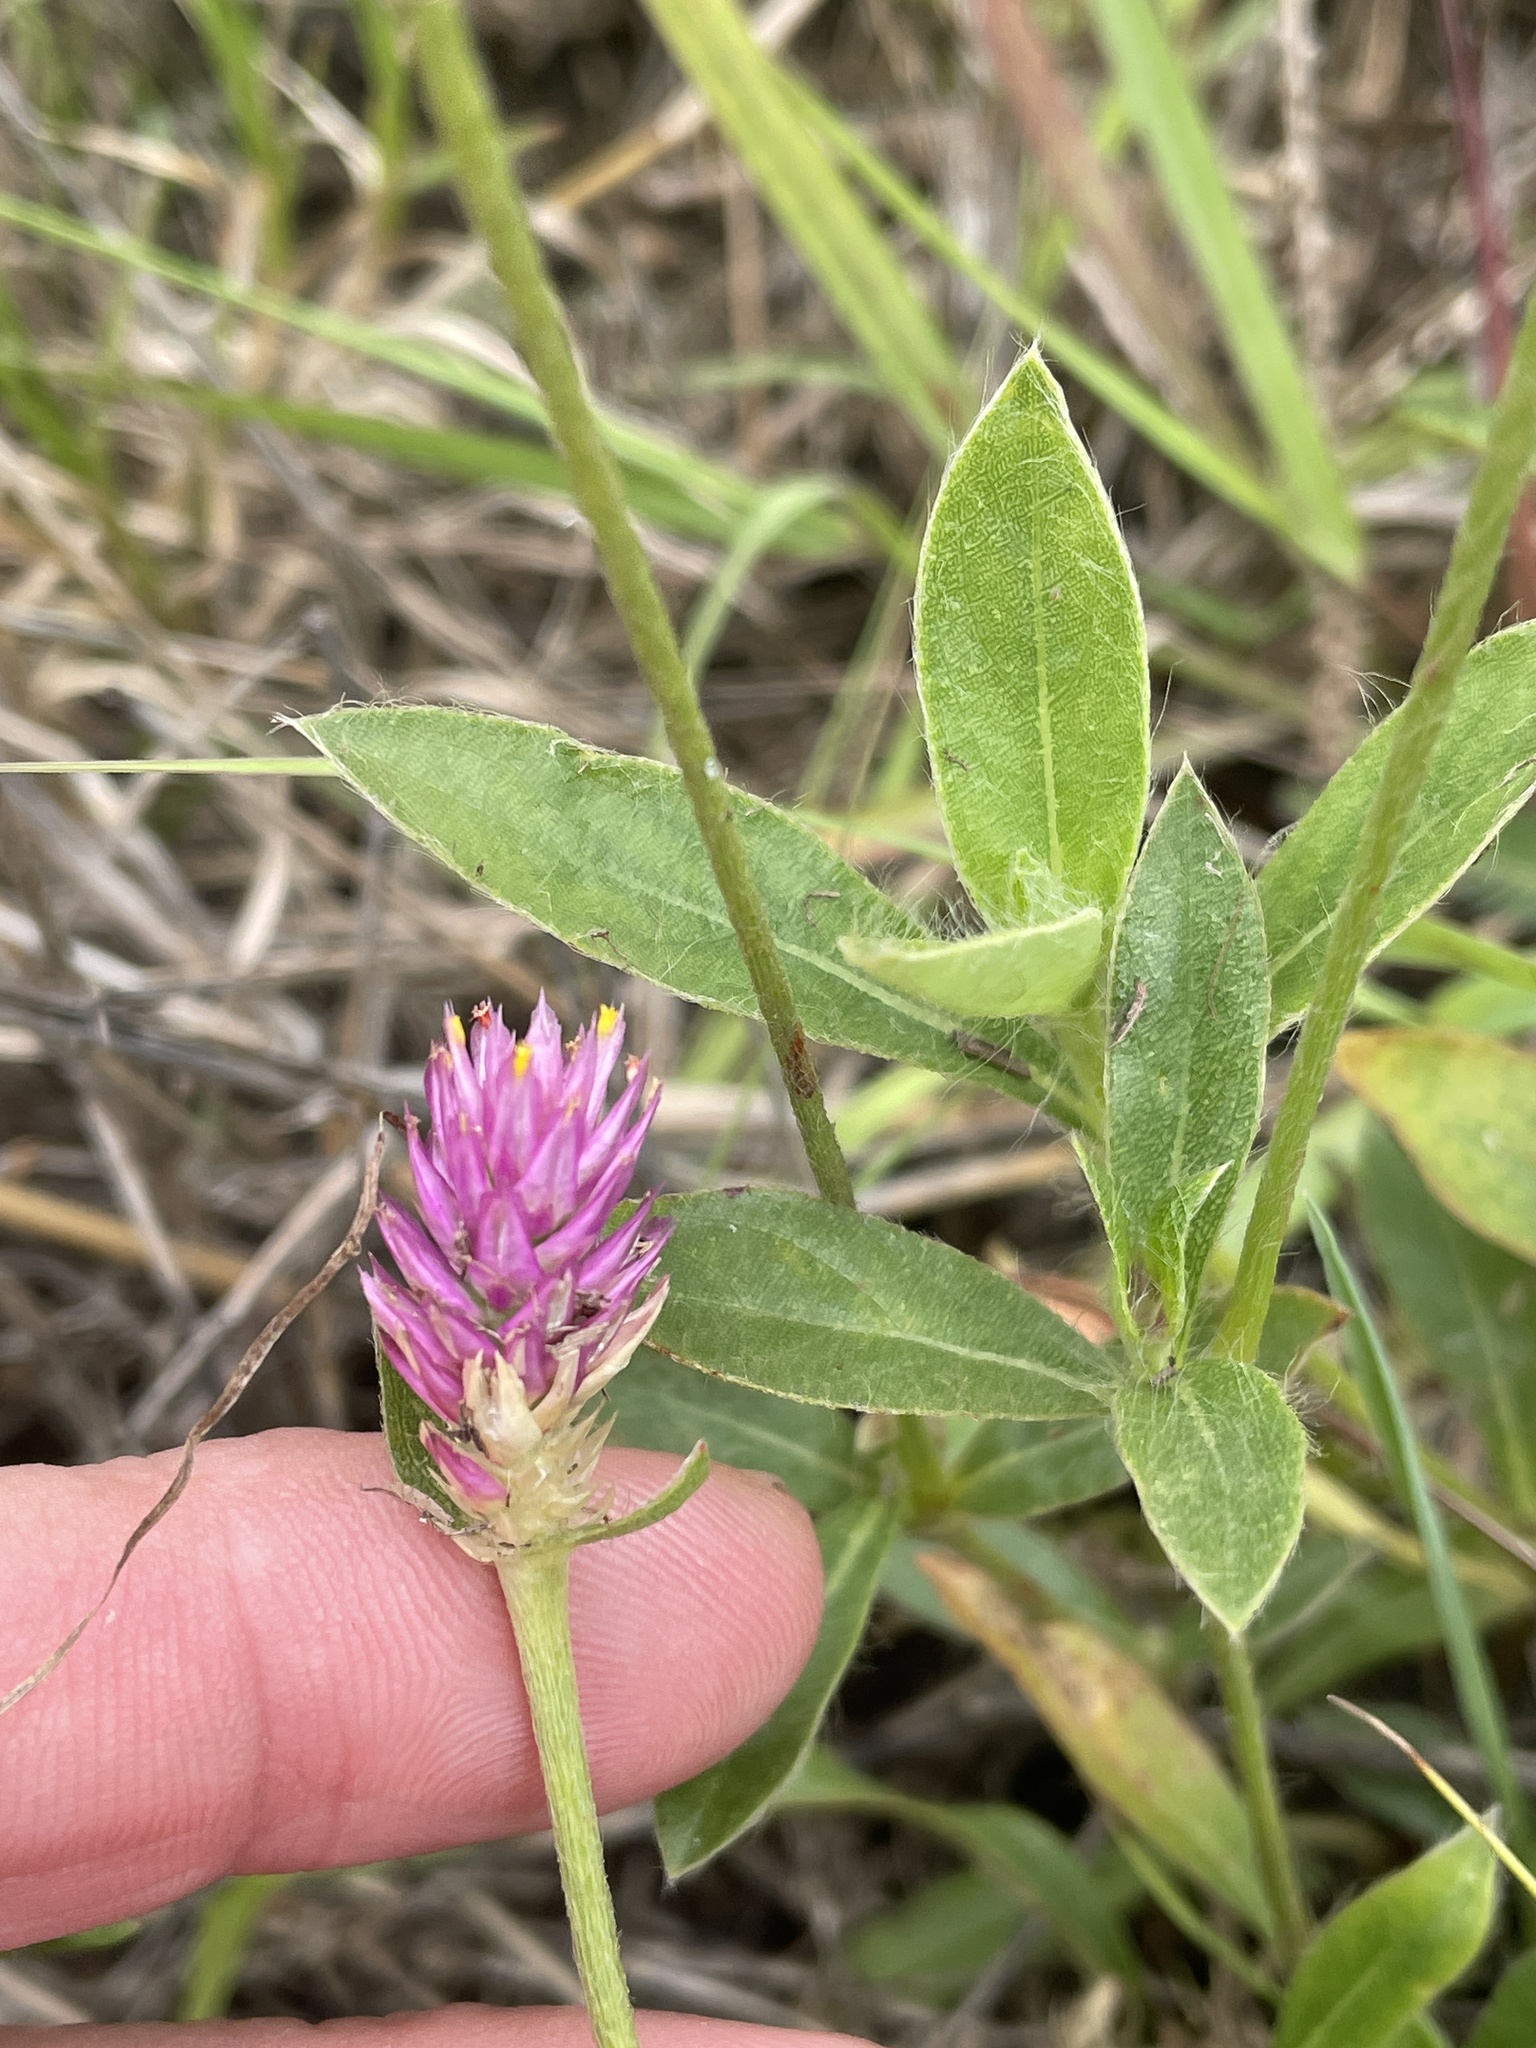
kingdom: Plantae
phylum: Tracheophyta
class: Magnoliopsida
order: Caryophyllales
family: Amaranthaceae
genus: Gomphrena
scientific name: Gomphrena serrata
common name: Arrasa con todo
